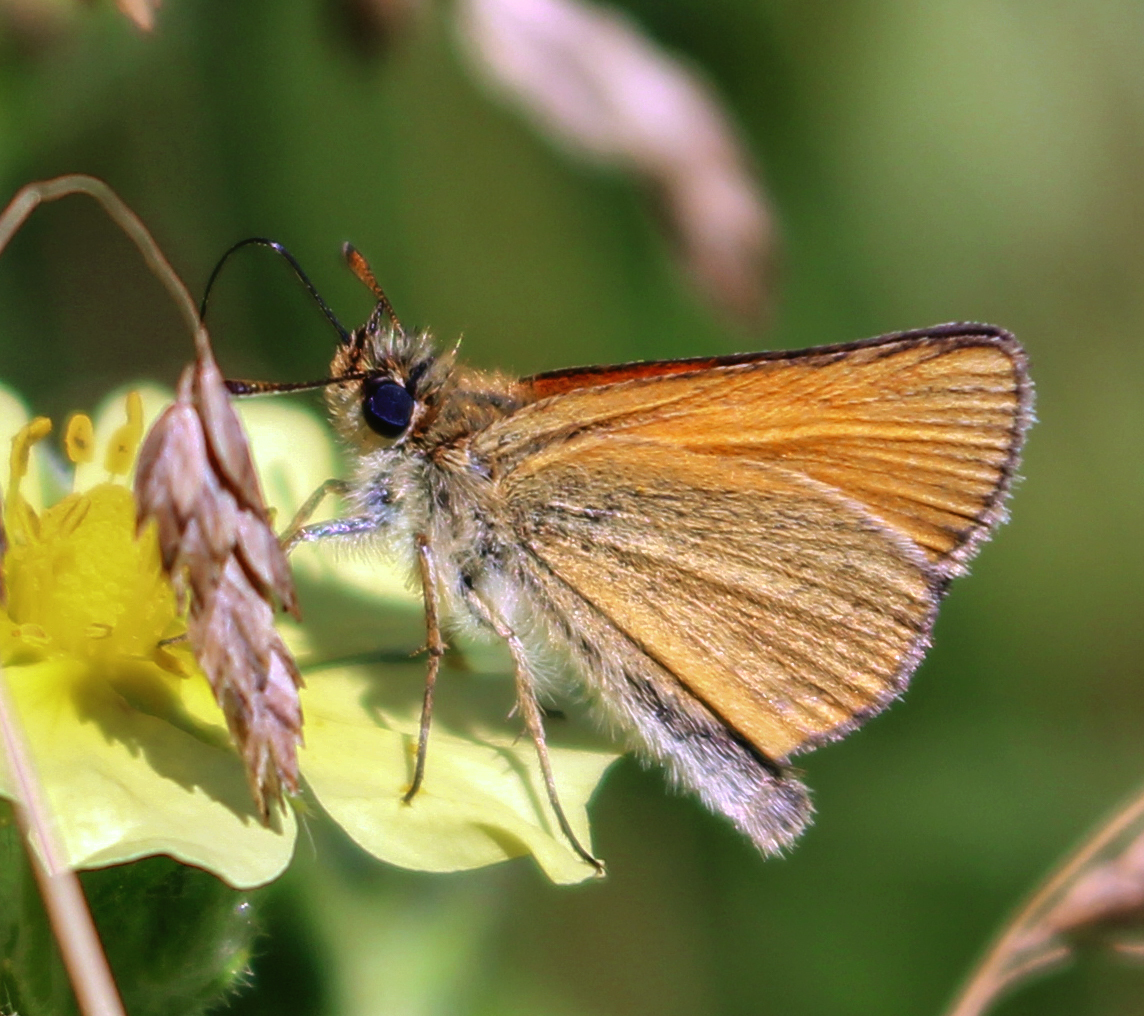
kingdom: Animalia
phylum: Arthropoda
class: Insecta
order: Lepidoptera
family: Hesperiidae
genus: Thymelicus
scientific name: Thymelicus lineola
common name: Essex skipper
